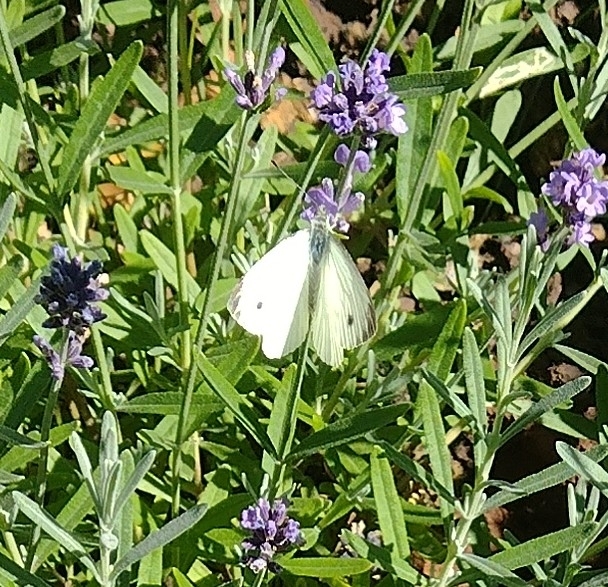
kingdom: Animalia
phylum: Arthropoda
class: Insecta
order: Lepidoptera
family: Pieridae
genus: Pieris
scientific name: Pieris napi
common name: Green-veined white
